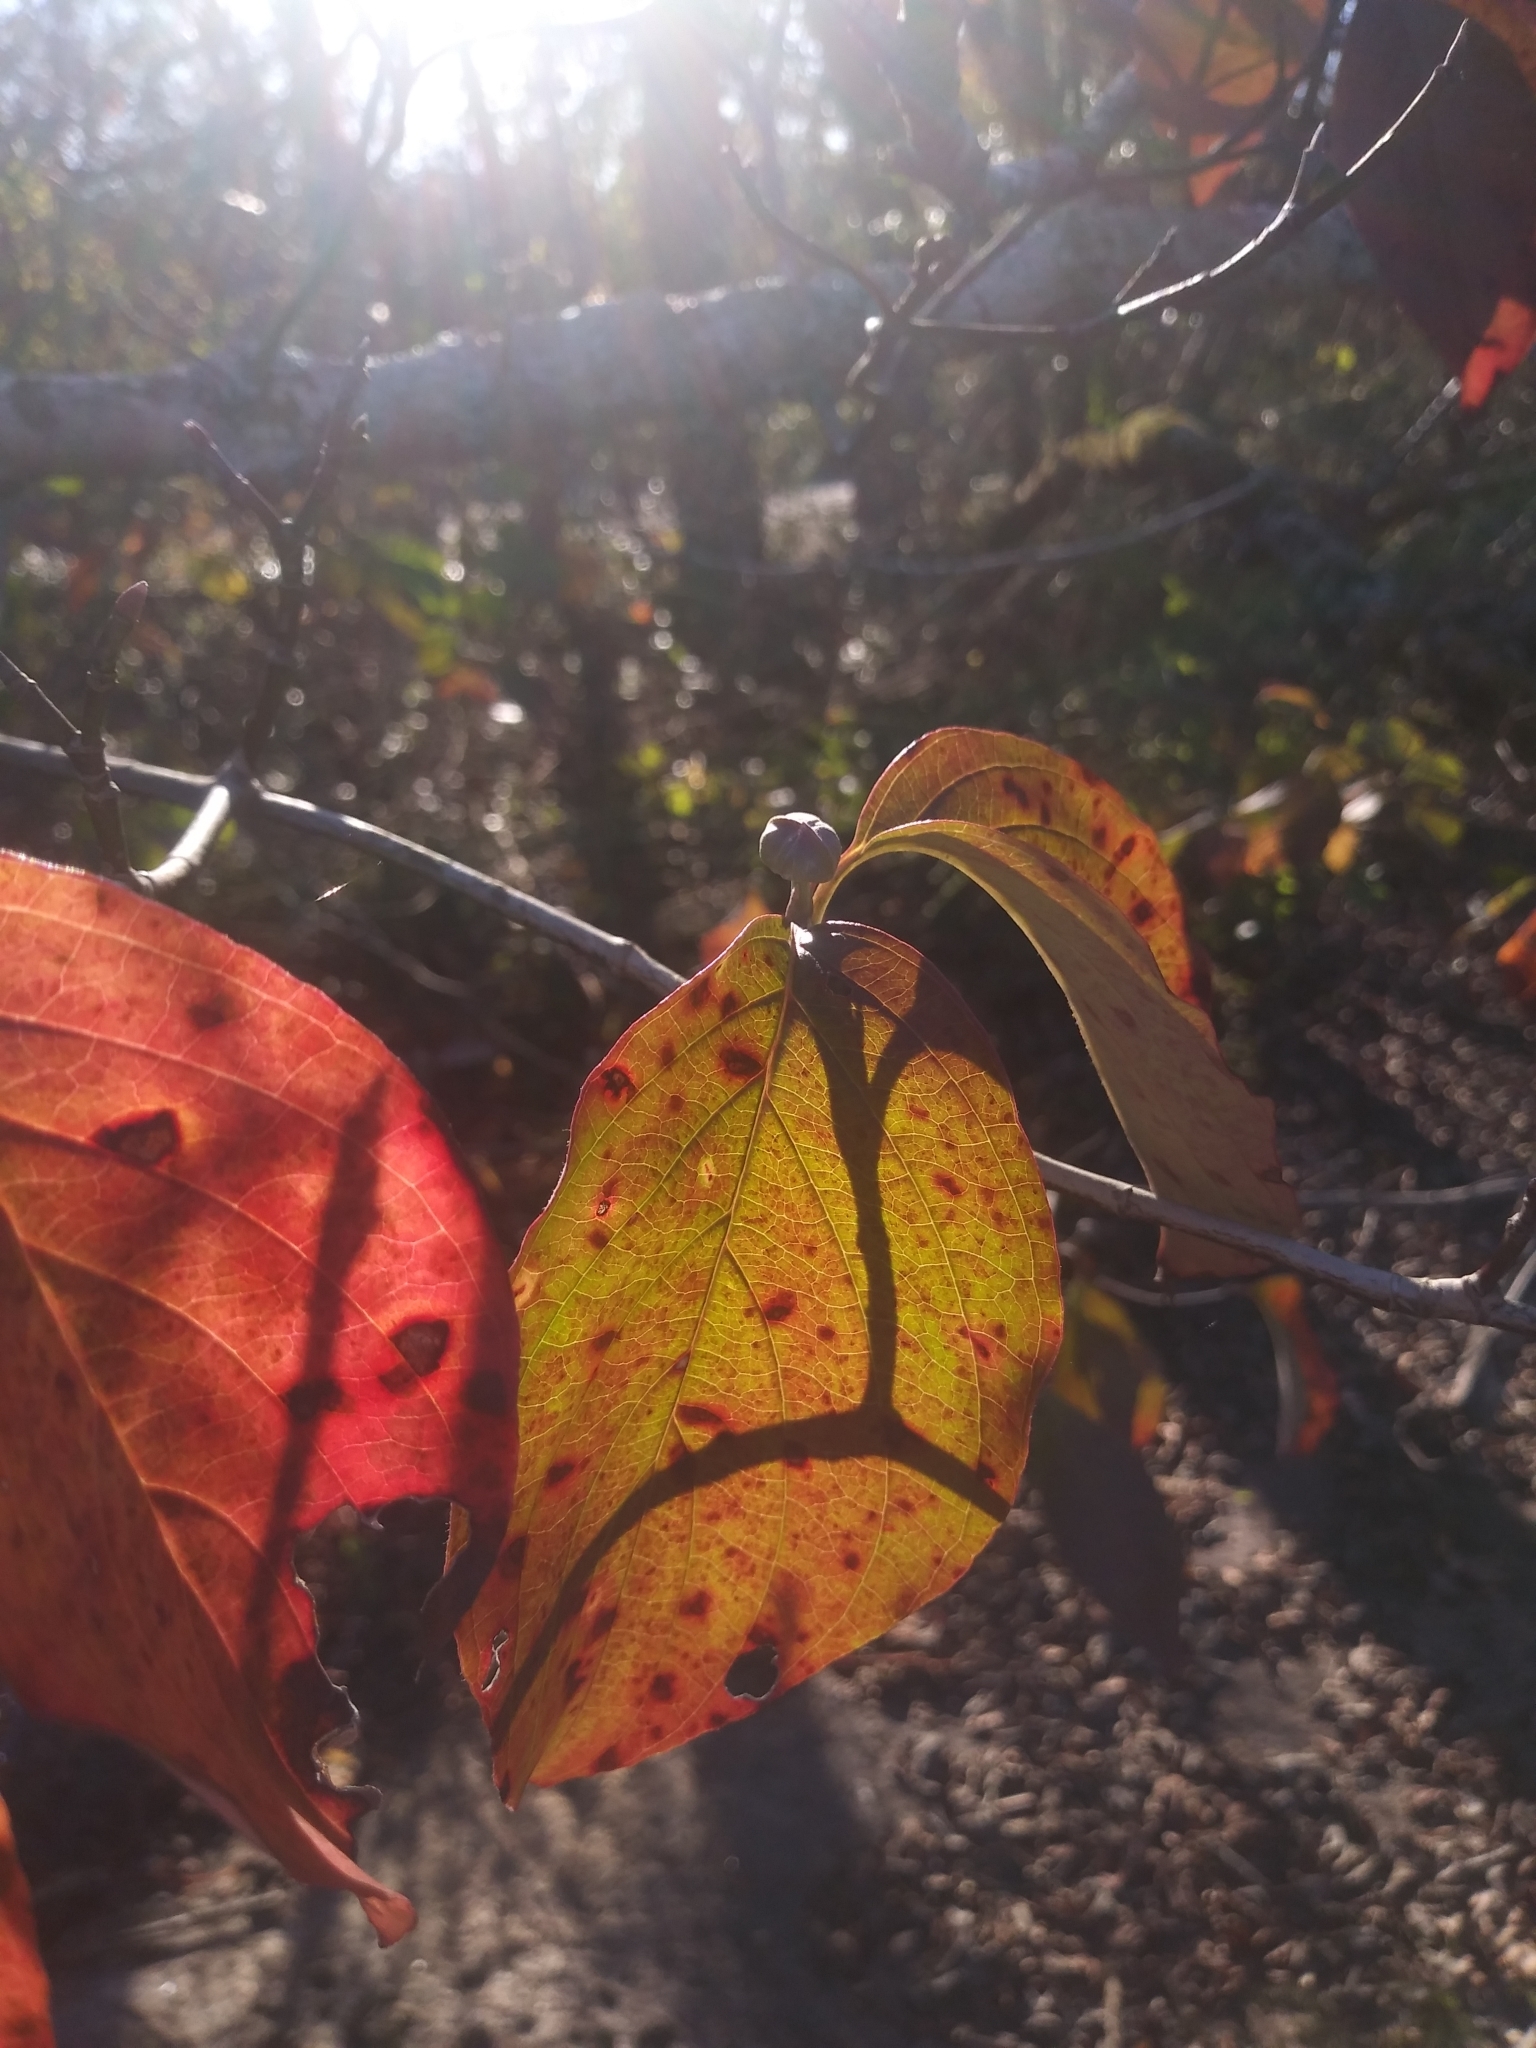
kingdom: Plantae
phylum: Tracheophyta
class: Magnoliopsida
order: Cornales
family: Cornaceae
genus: Cornus
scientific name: Cornus florida
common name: Flowering dogwood
